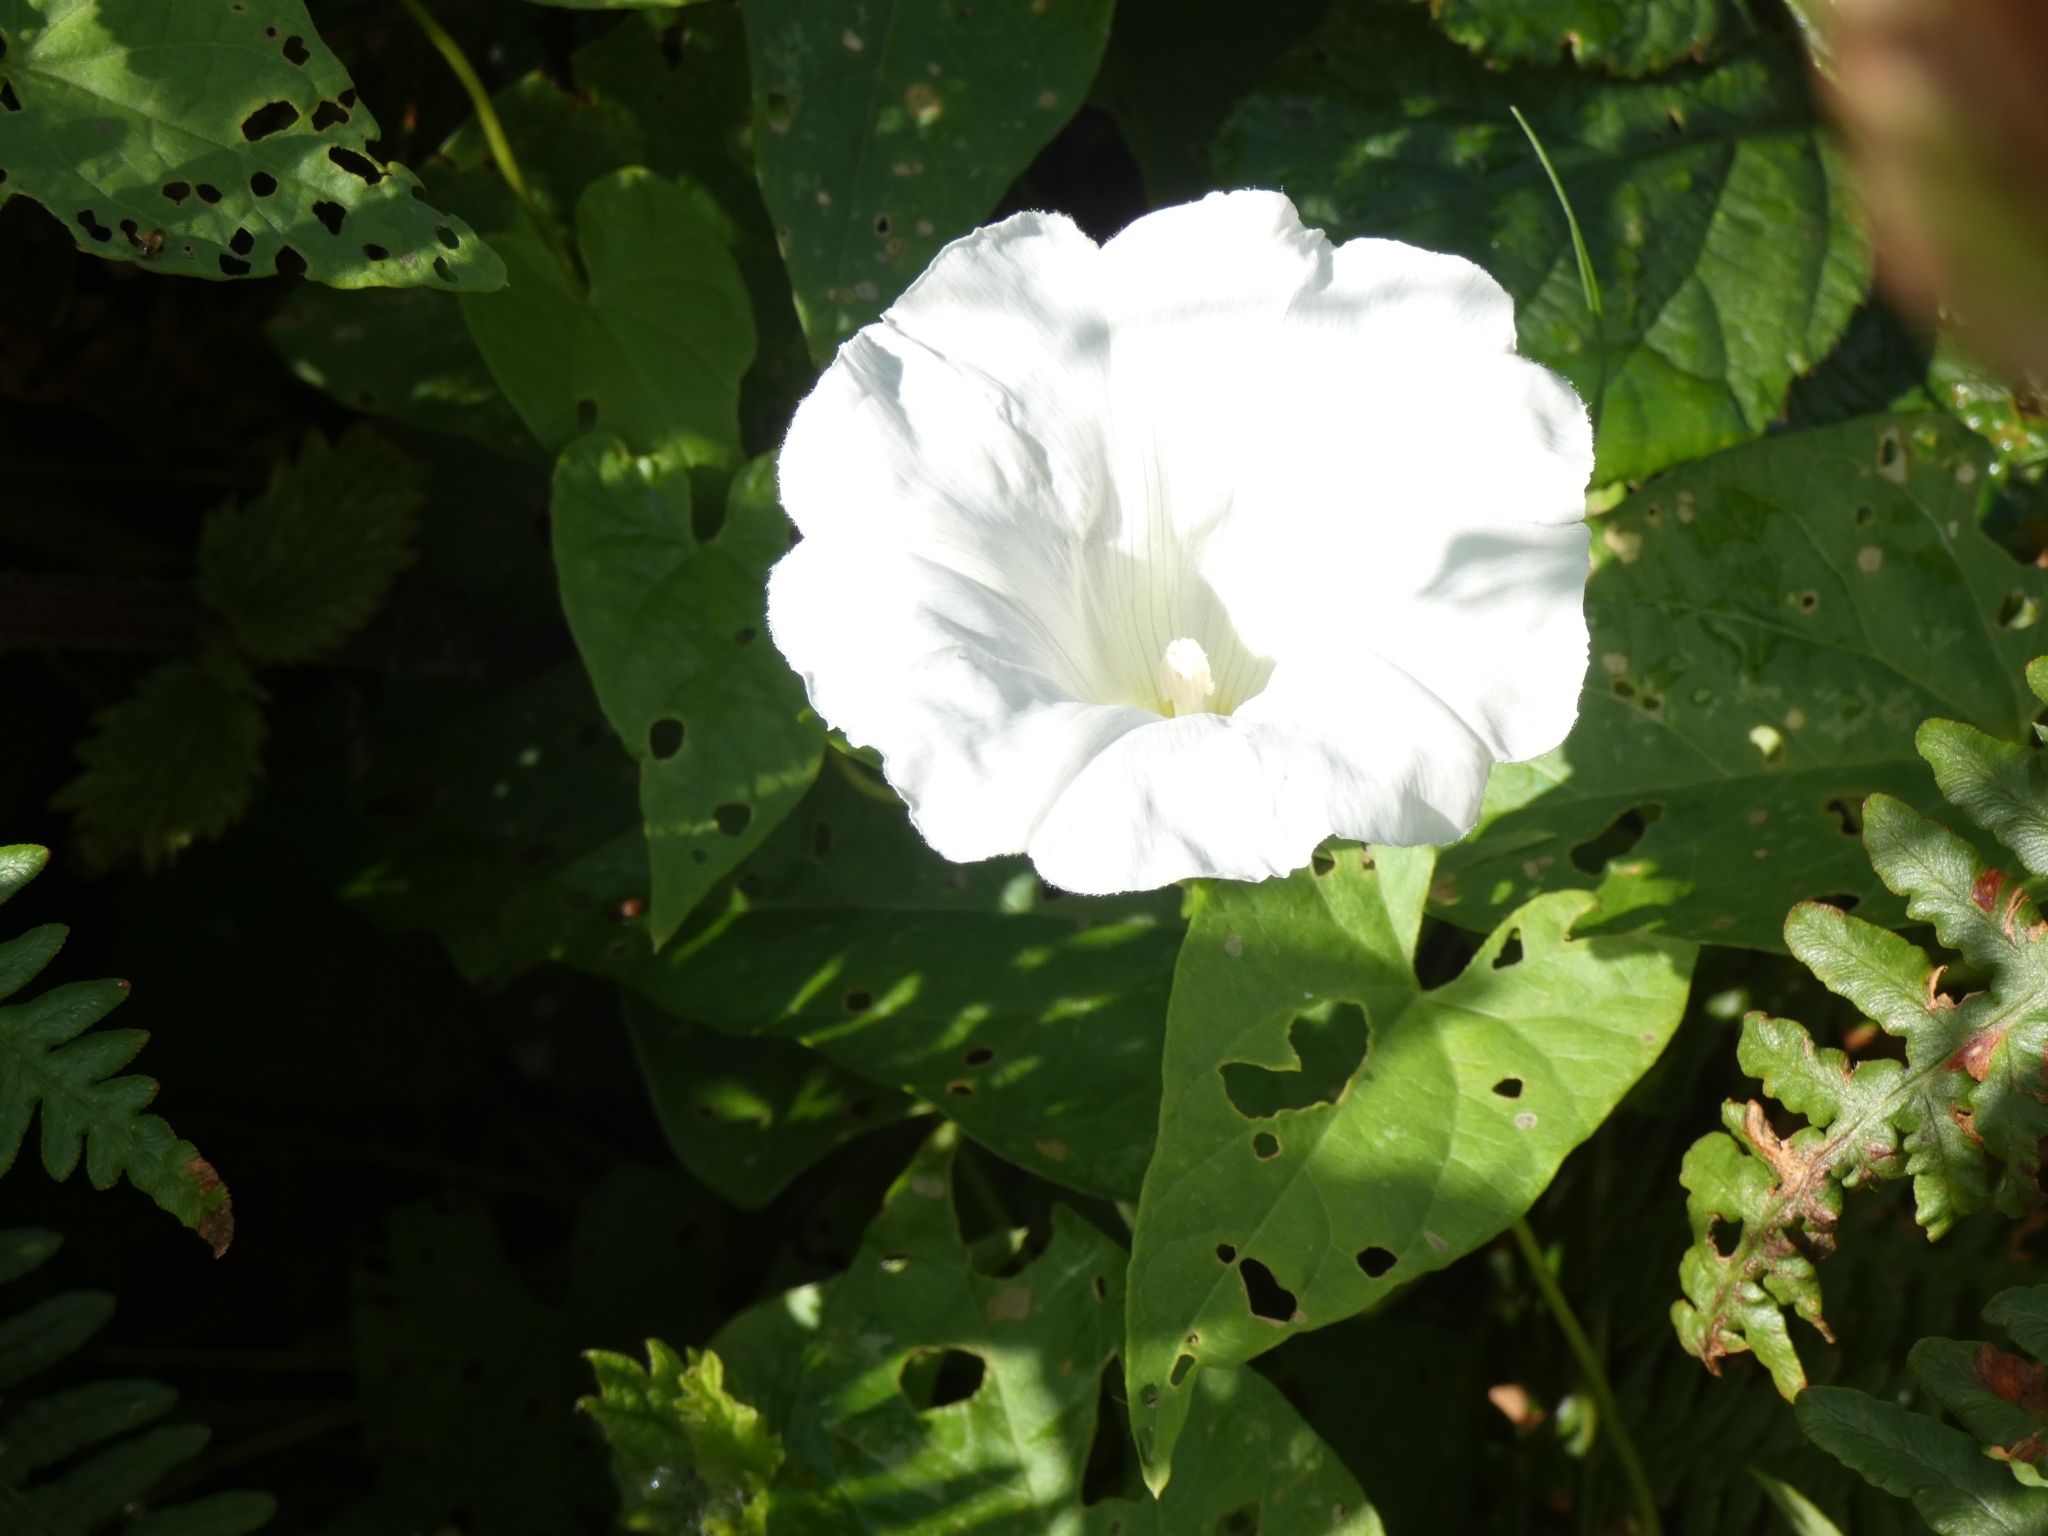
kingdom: Plantae
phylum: Tracheophyta
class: Magnoliopsida
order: Solanales
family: Convolvulaceae
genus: Calystegia
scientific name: Calystegia
